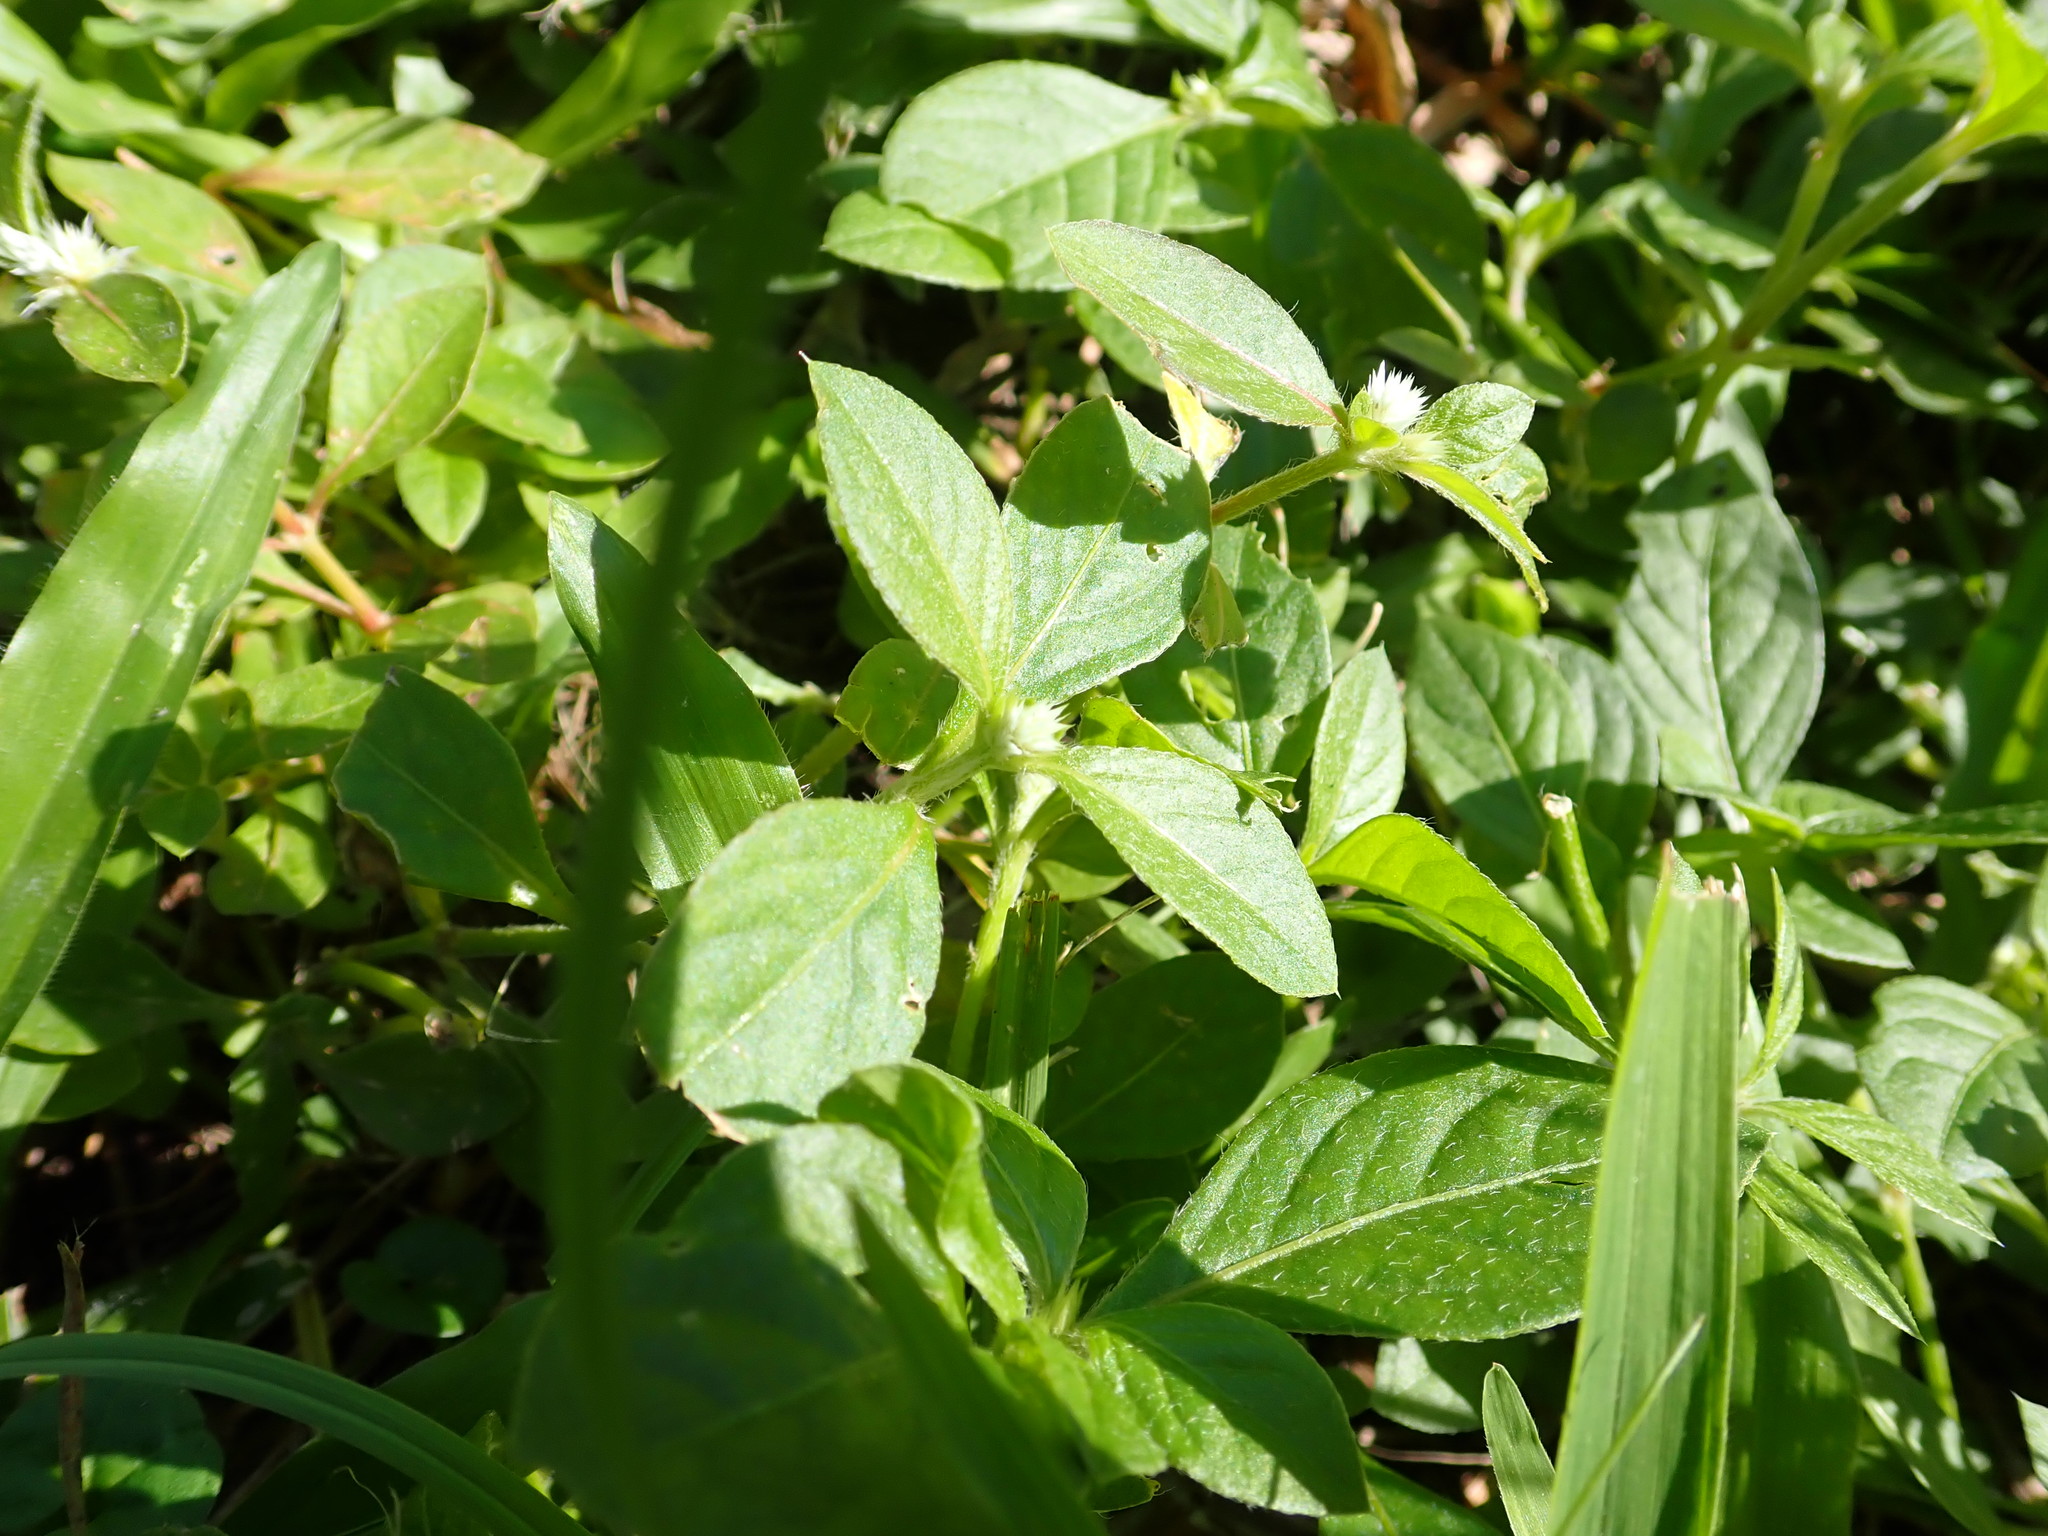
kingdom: Plantae
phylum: Tracheophyta
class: Magnoliopsida
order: Caryophyllales
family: Amaranthaceae
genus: Alternanthera
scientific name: Alternanthera bettzickiana
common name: Calico-plant
